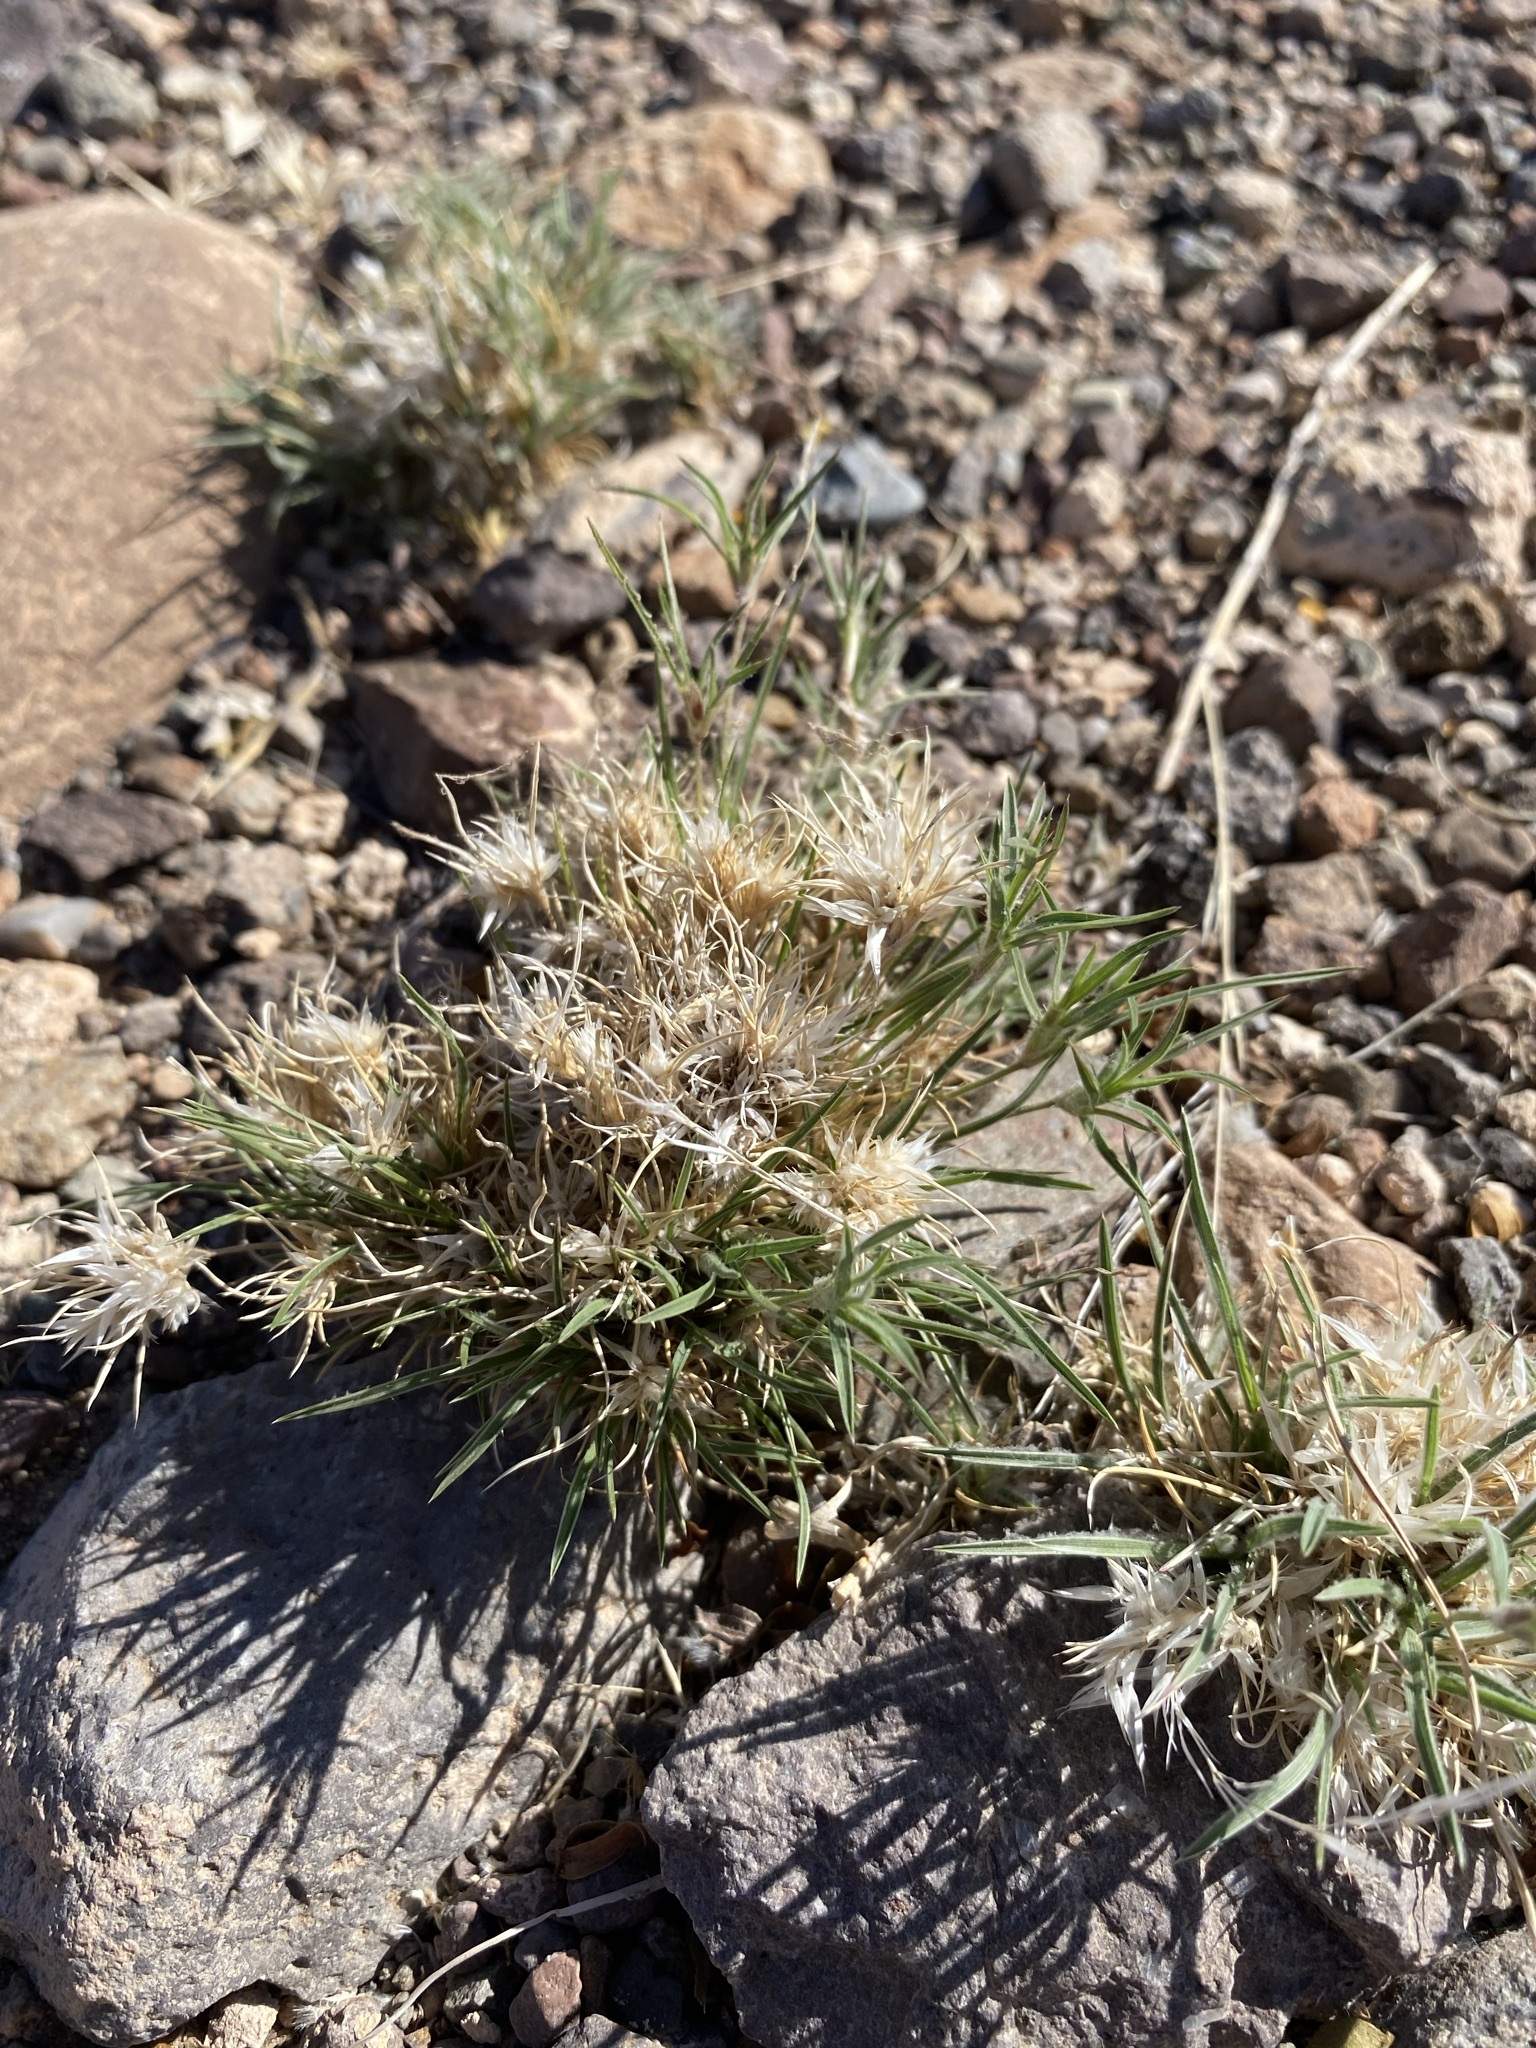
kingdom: Plantae
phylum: Tracheophyta
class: Liliopsida
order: Poales
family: Poaceae
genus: Dasyochloa
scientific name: Dasyochloa pulchella
